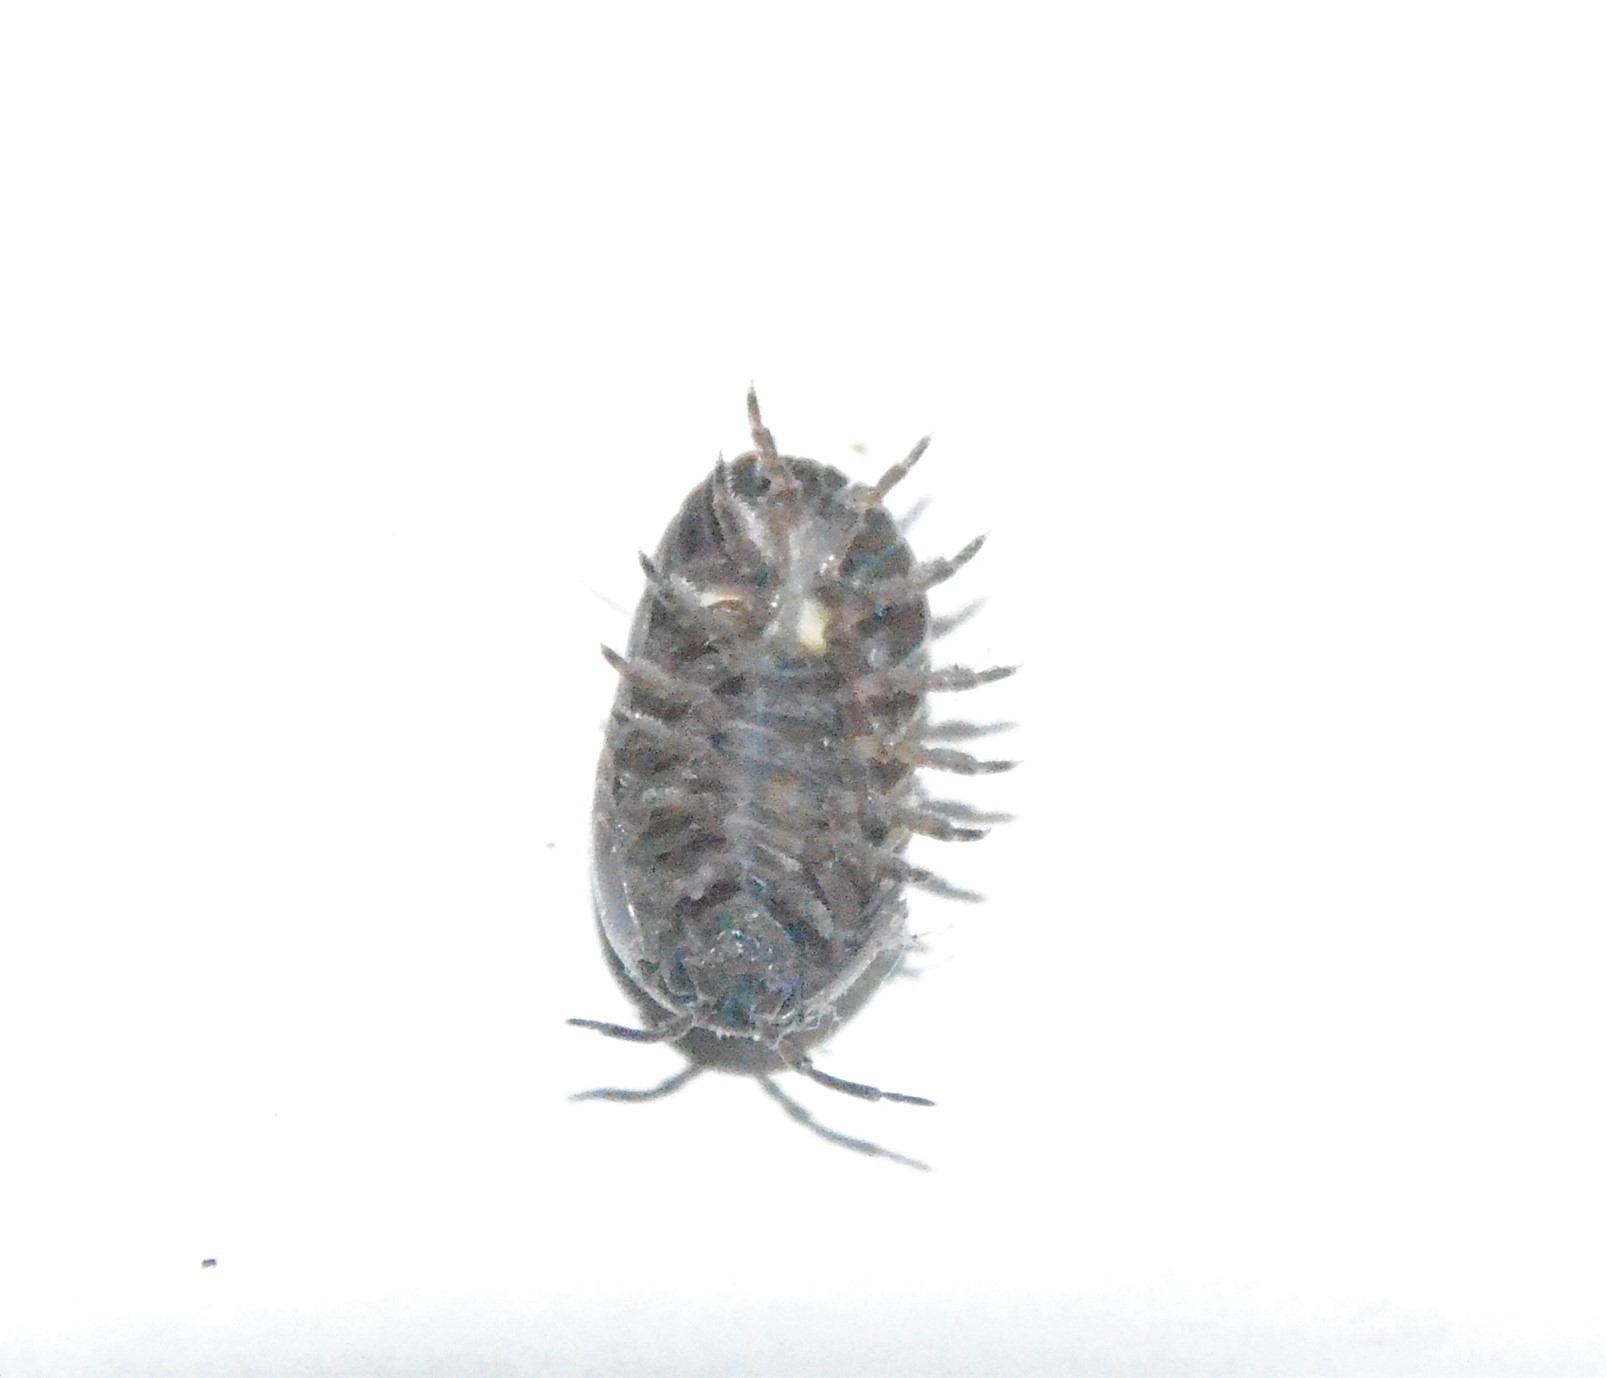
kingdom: Animalia
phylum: Arthropoda
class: Malacostraca
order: Isopoda
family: Armadillidiidae
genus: Armadillidium
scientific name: Armadillidium vulgare
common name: Common pill woodlouse
